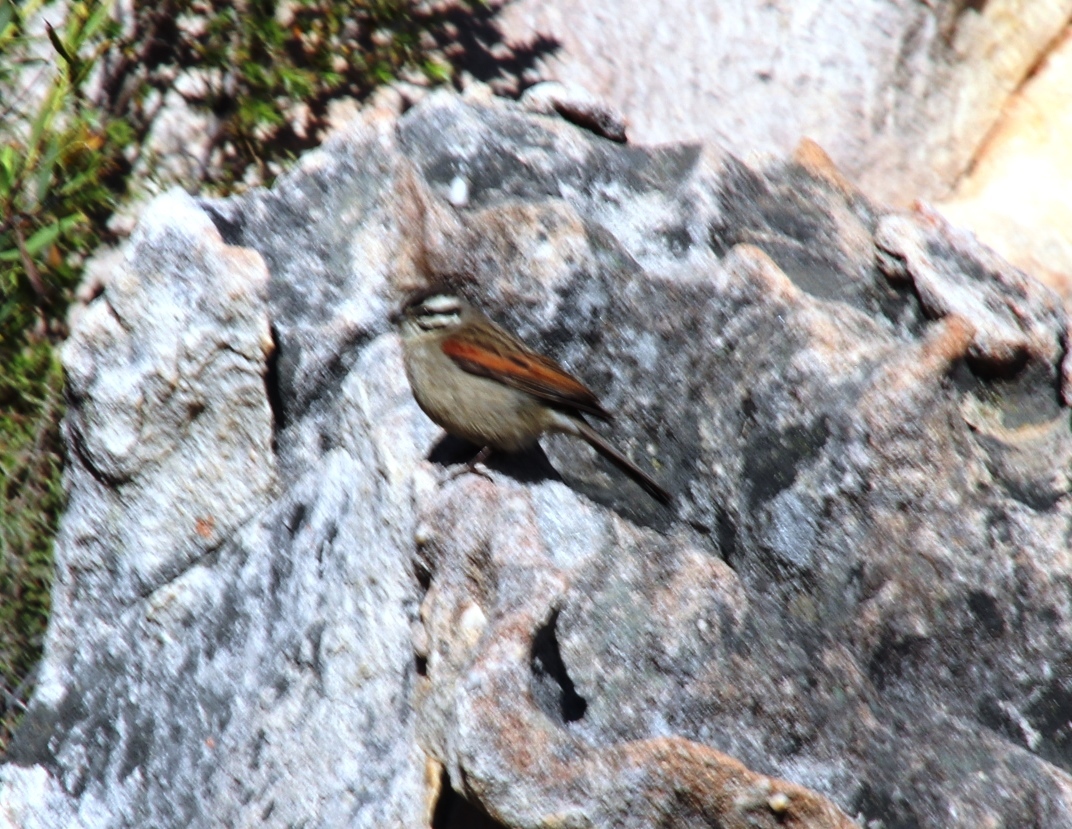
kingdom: Animalia
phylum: Chordata
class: Aves
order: Passeriformes
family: Emberizidae
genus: Emberiza
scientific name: Emberiza capensis
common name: Cape bunting
